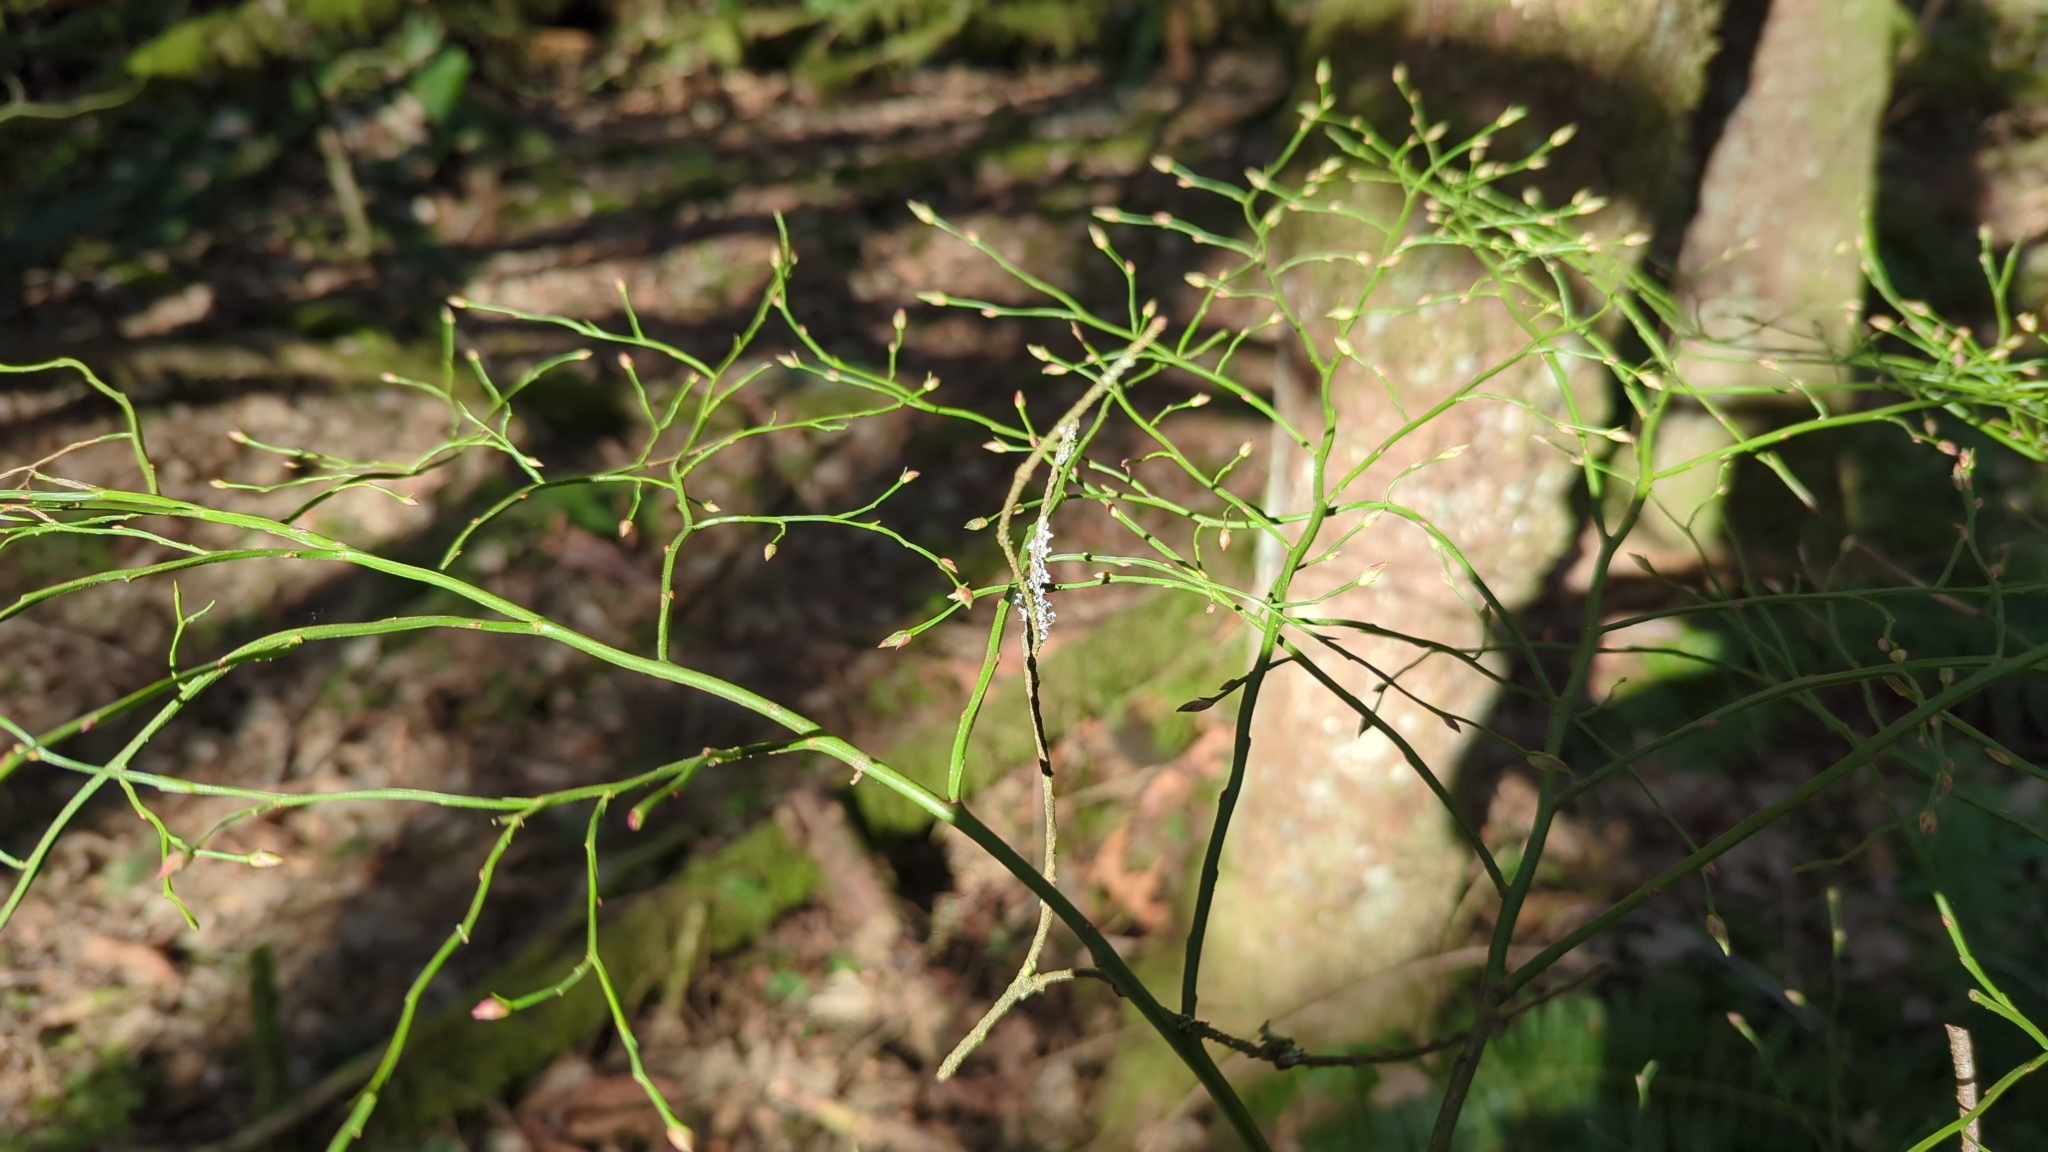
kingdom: Plantae
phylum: Tracheophyta
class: Magnoliopsida
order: Ericales
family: Ericaceae
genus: Vaccinium
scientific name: Vaccinium parvifolium
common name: Red-huckleberry
